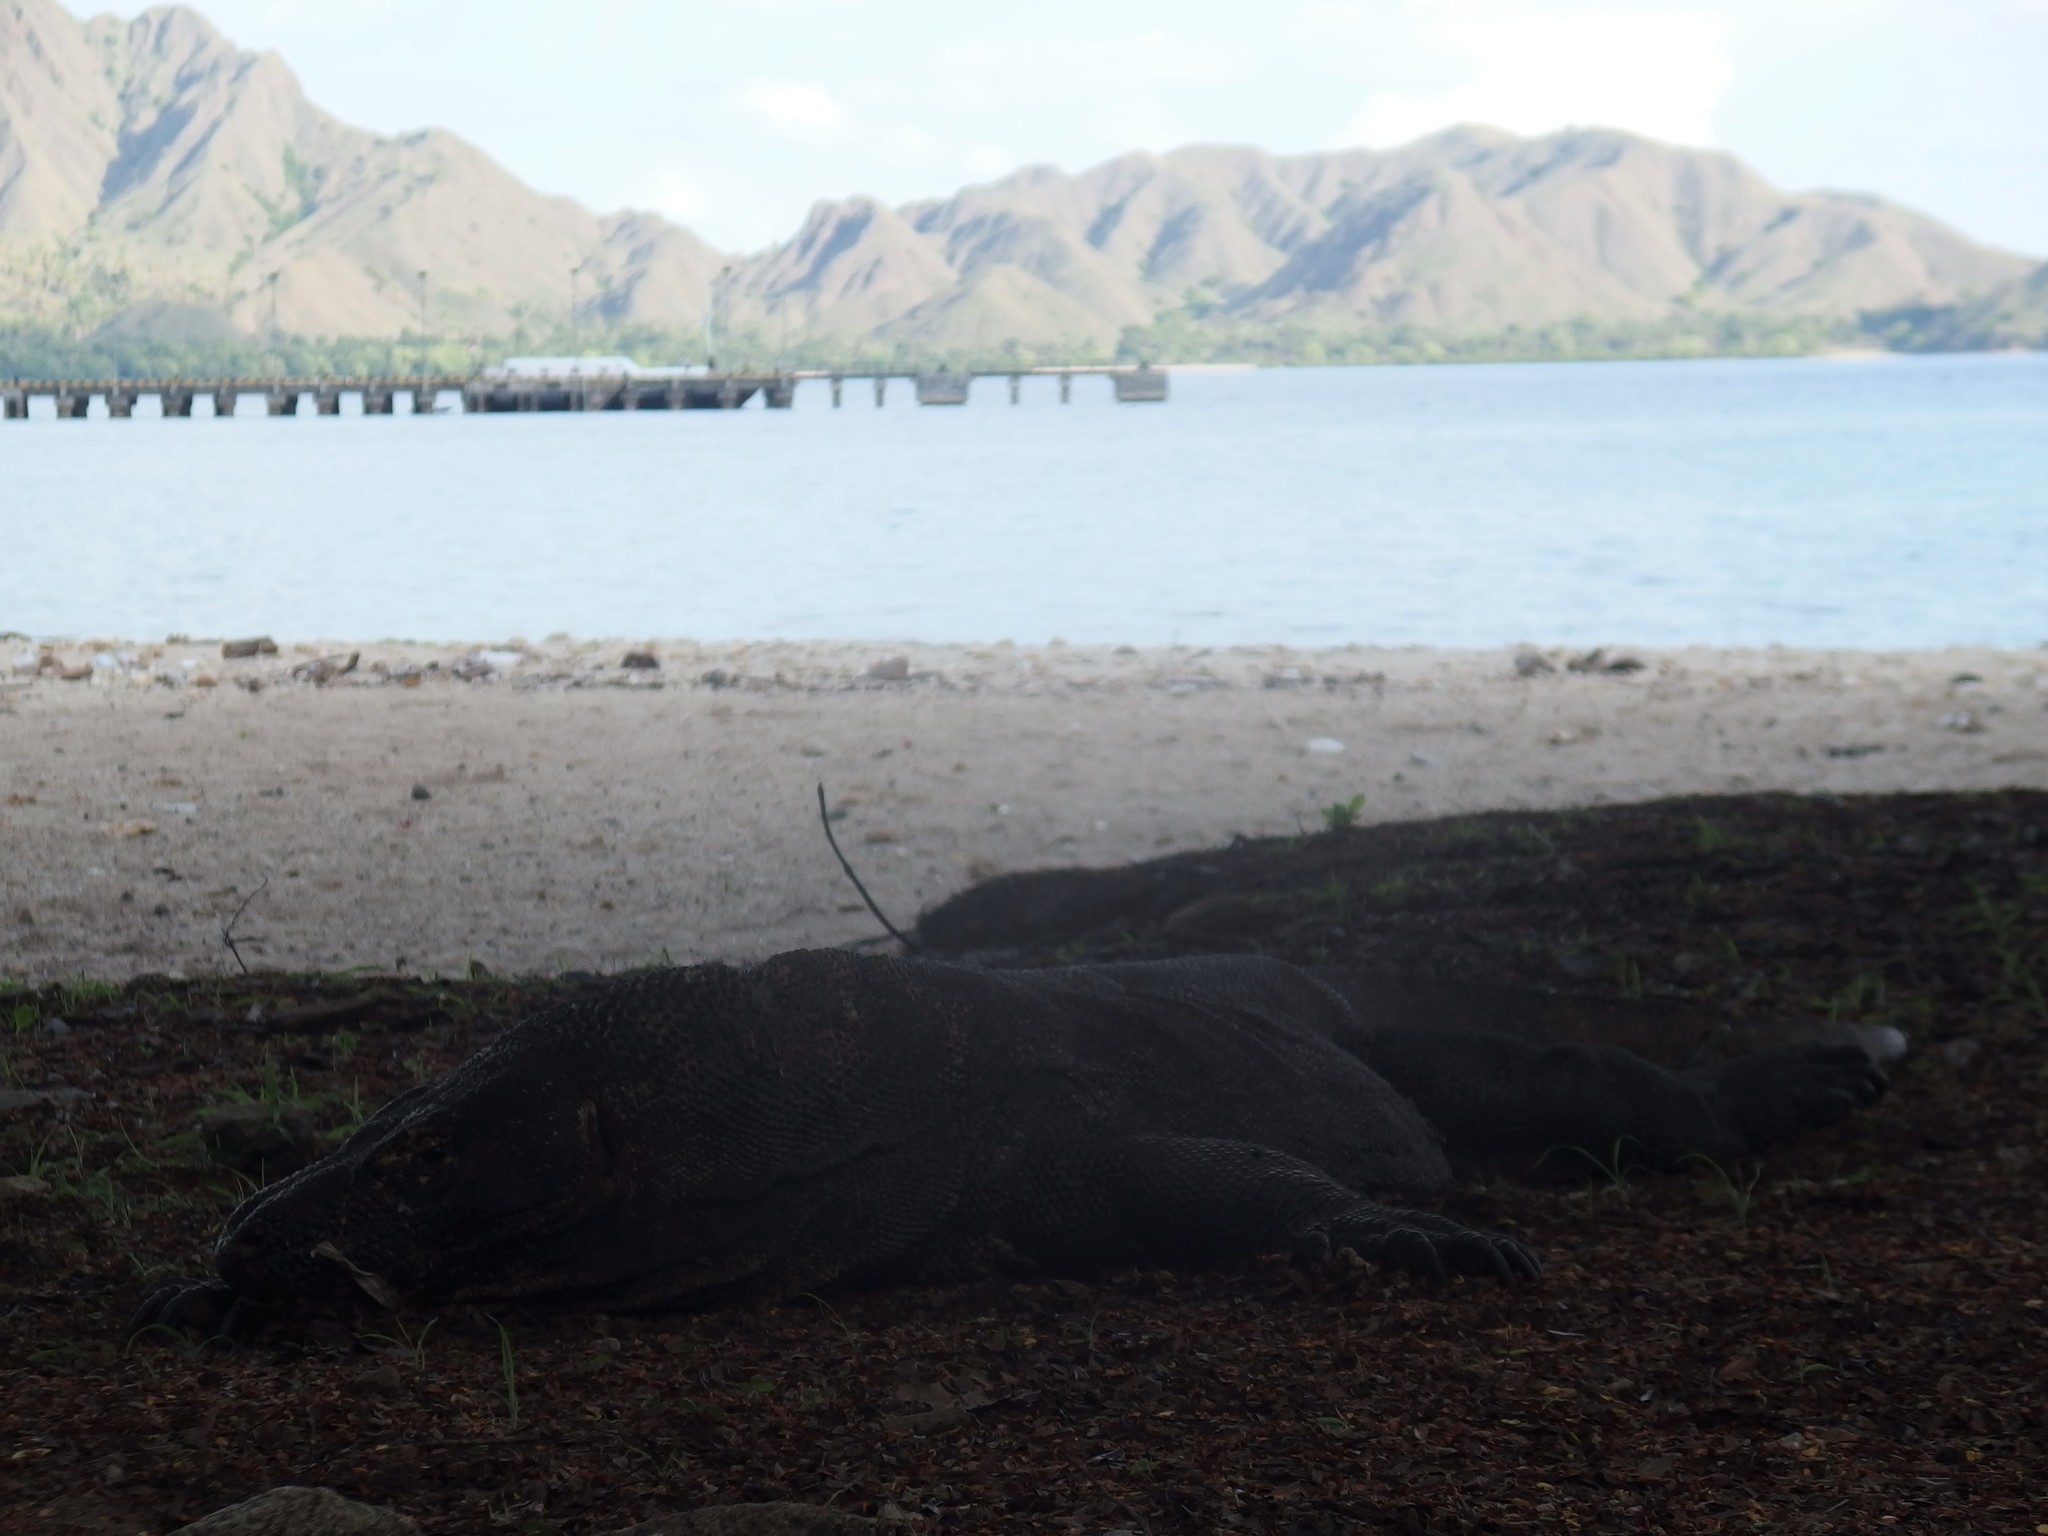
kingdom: Animalia
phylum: Chordata
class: Squamata
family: Varanidae
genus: Varanus
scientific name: Varanus komodoensis
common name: Komodo dragon
